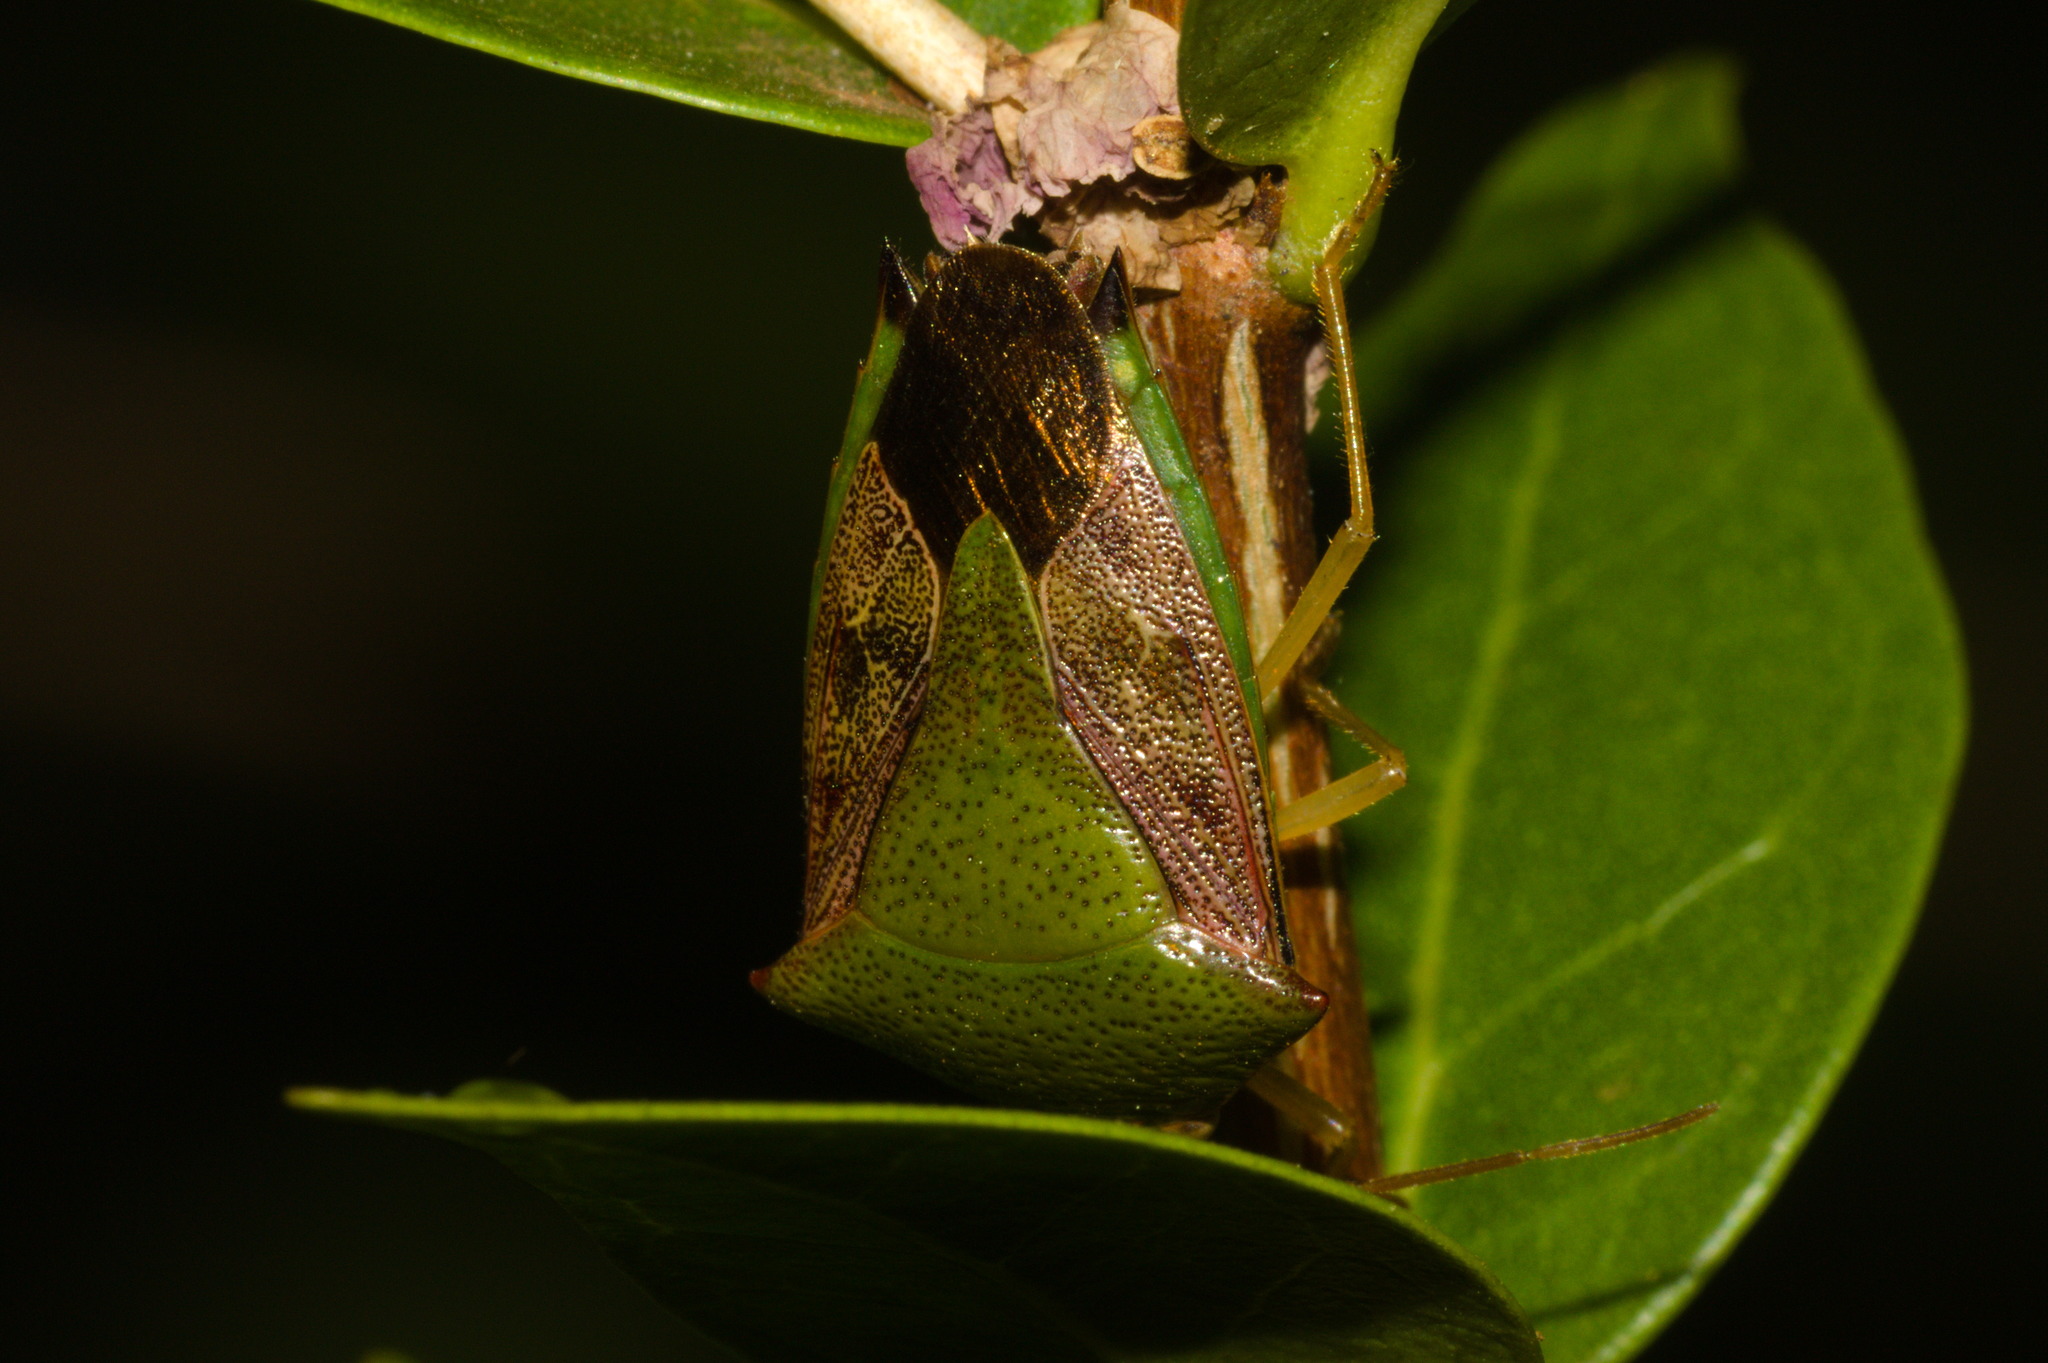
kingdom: Animalia
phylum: Arthropoda
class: Insecta
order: Hemiptera
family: Pentatomidae
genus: Hypoxys
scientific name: Hypoxys subrastratus
